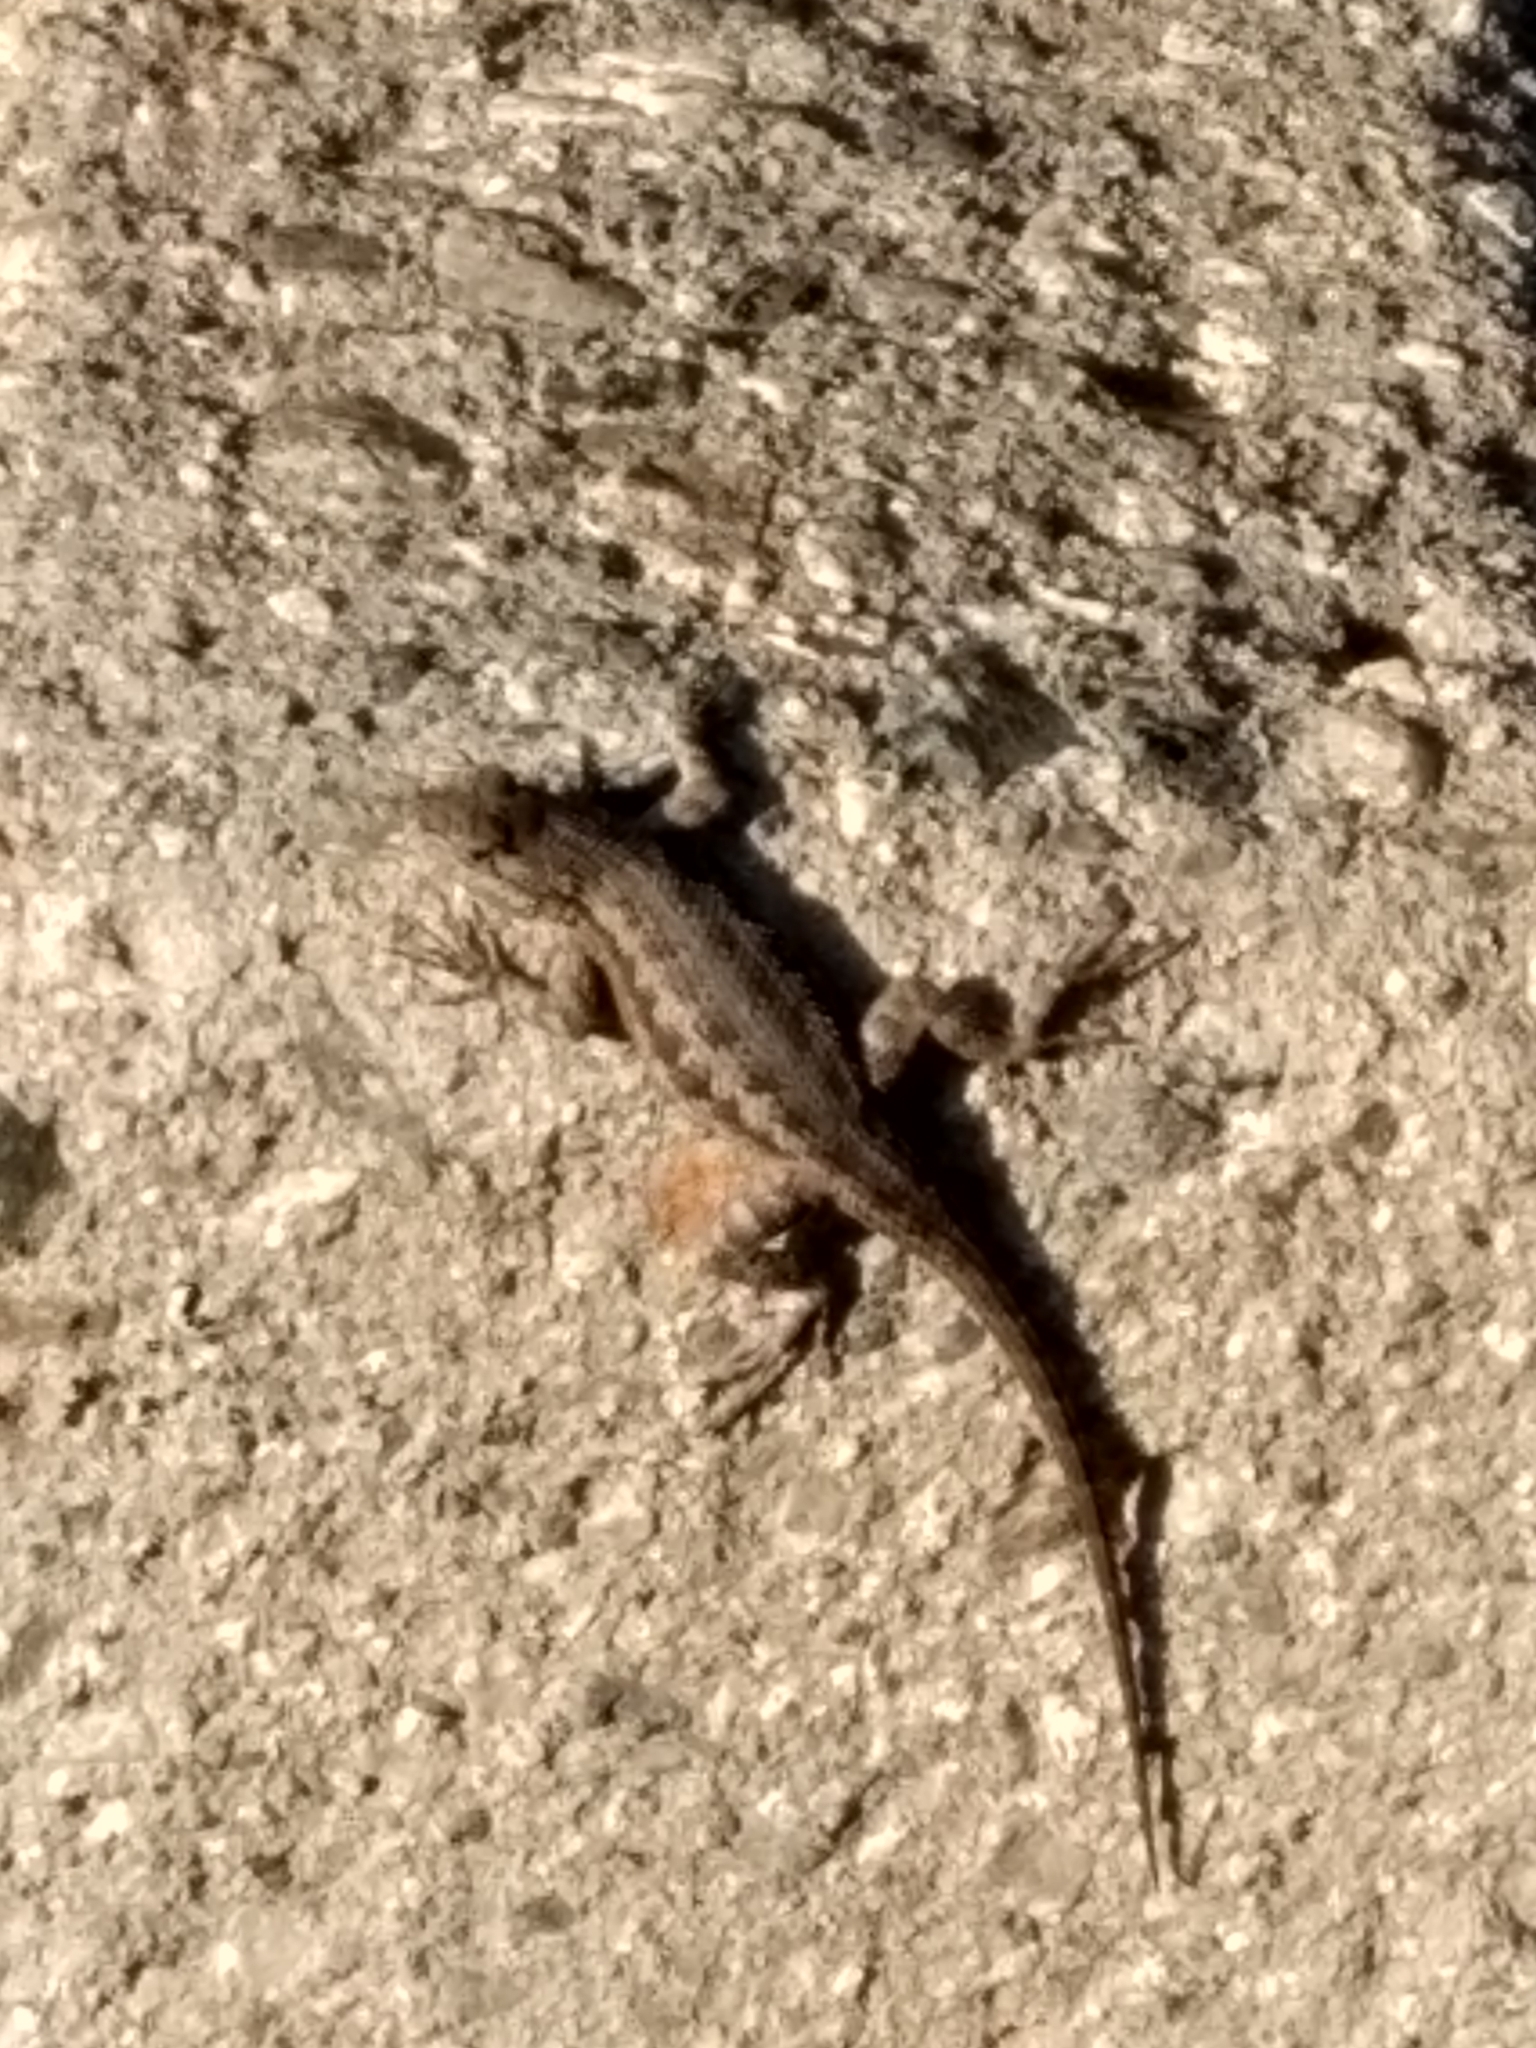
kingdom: Animalia
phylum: Chordata
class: Squamata
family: Phrynosomatidae
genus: Sceloporus
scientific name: Sceloporus occidentalis
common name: Western fence lizard
